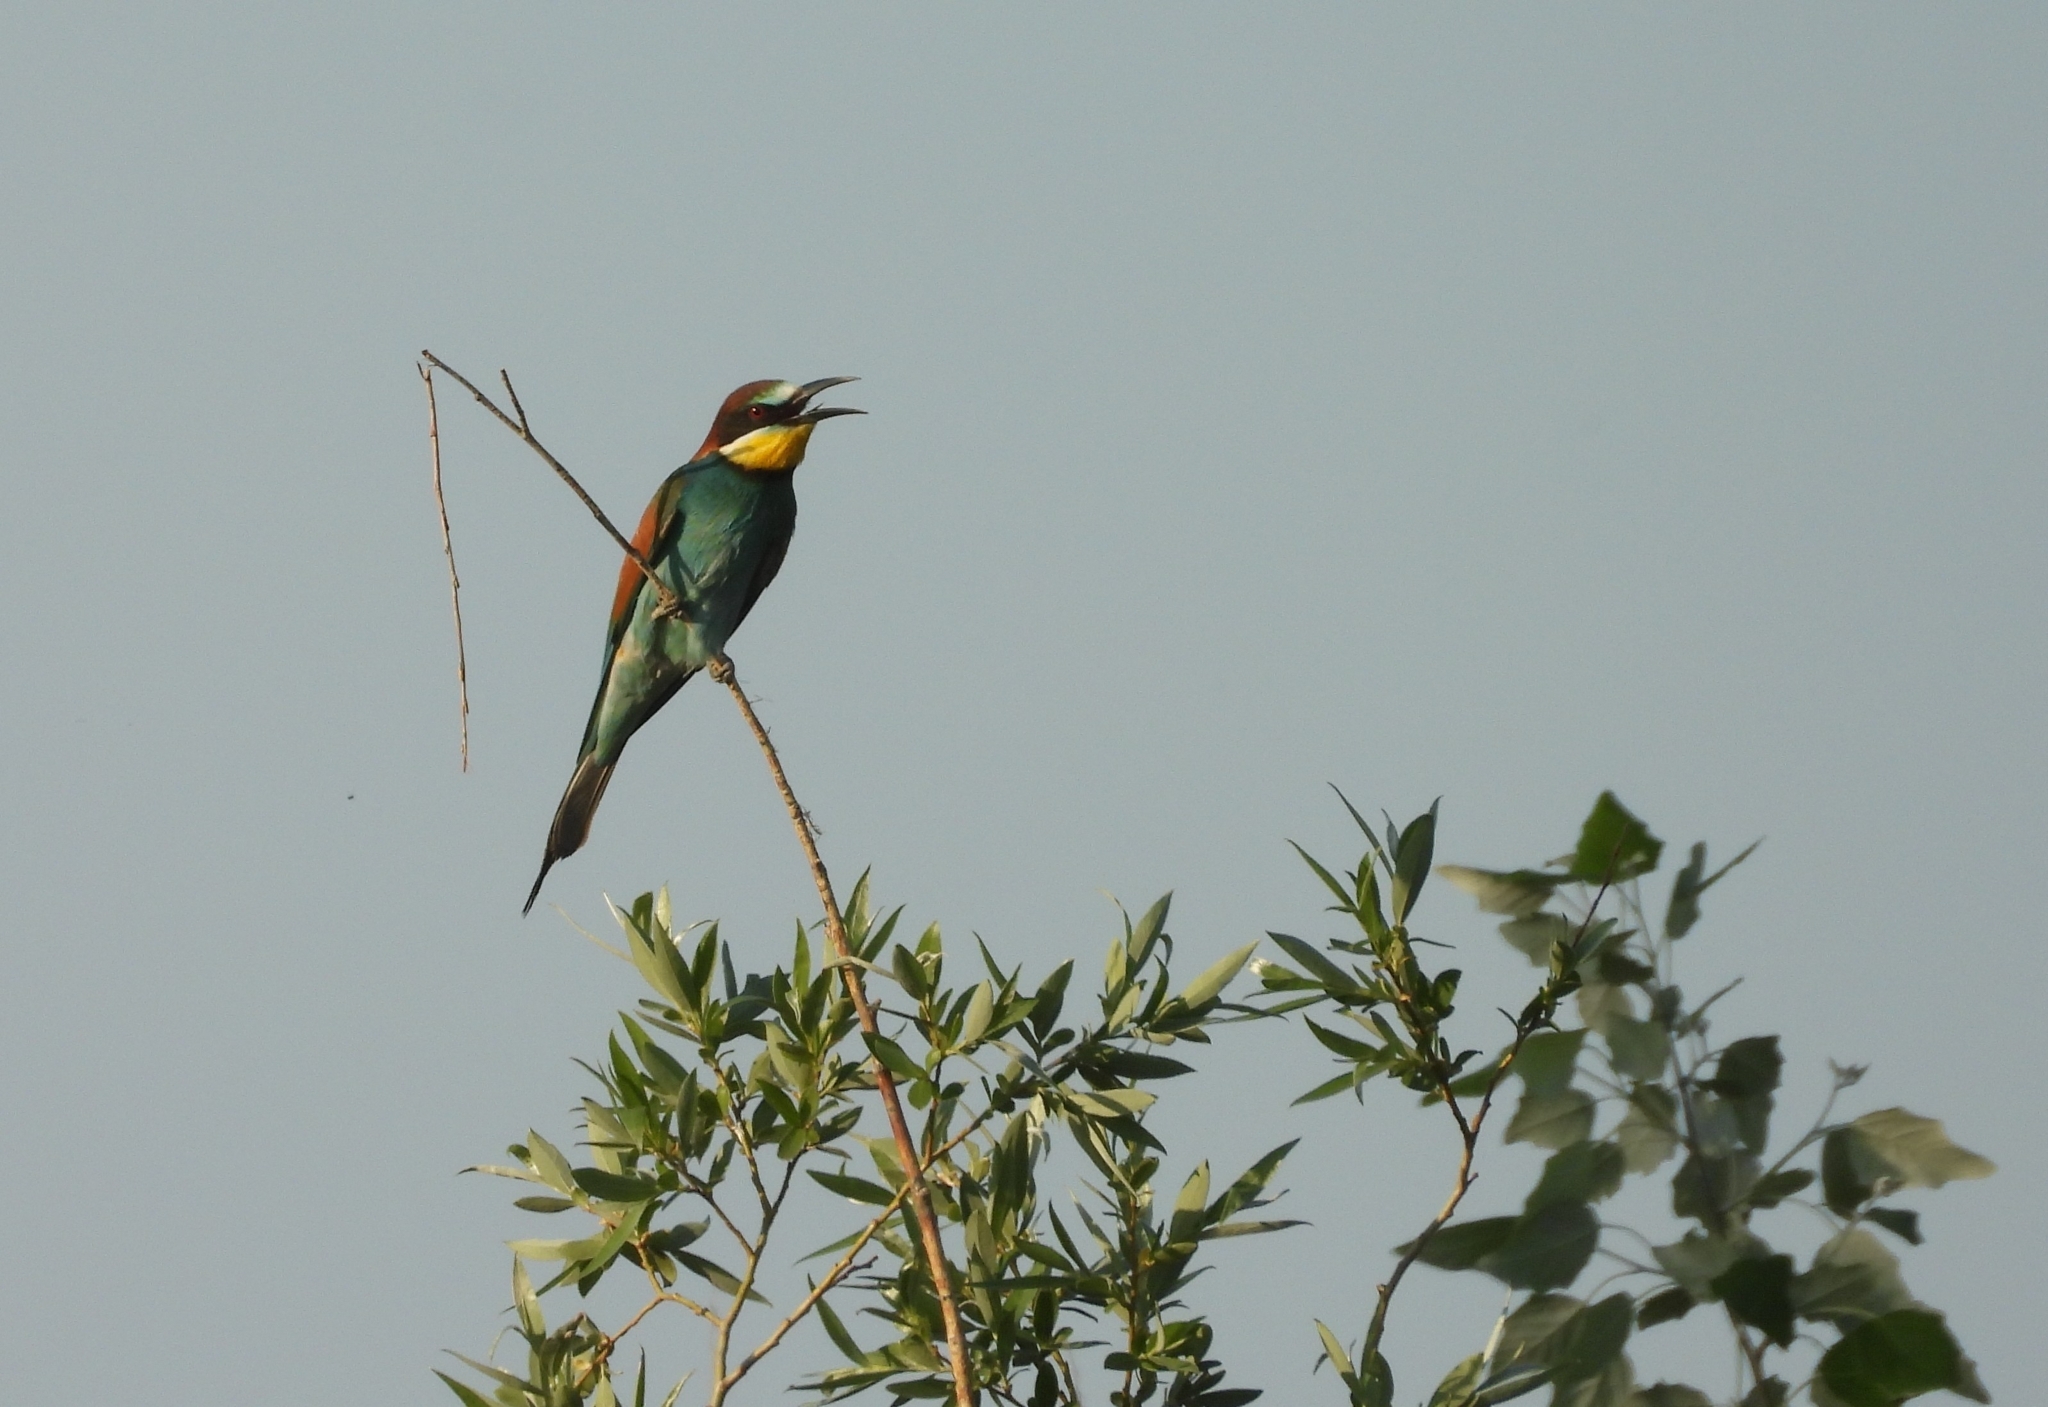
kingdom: Animalia
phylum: Chordata
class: Aves
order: Coraciiformes
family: Meropidae
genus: Merops
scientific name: Merops apiaster
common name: European bee-eater
